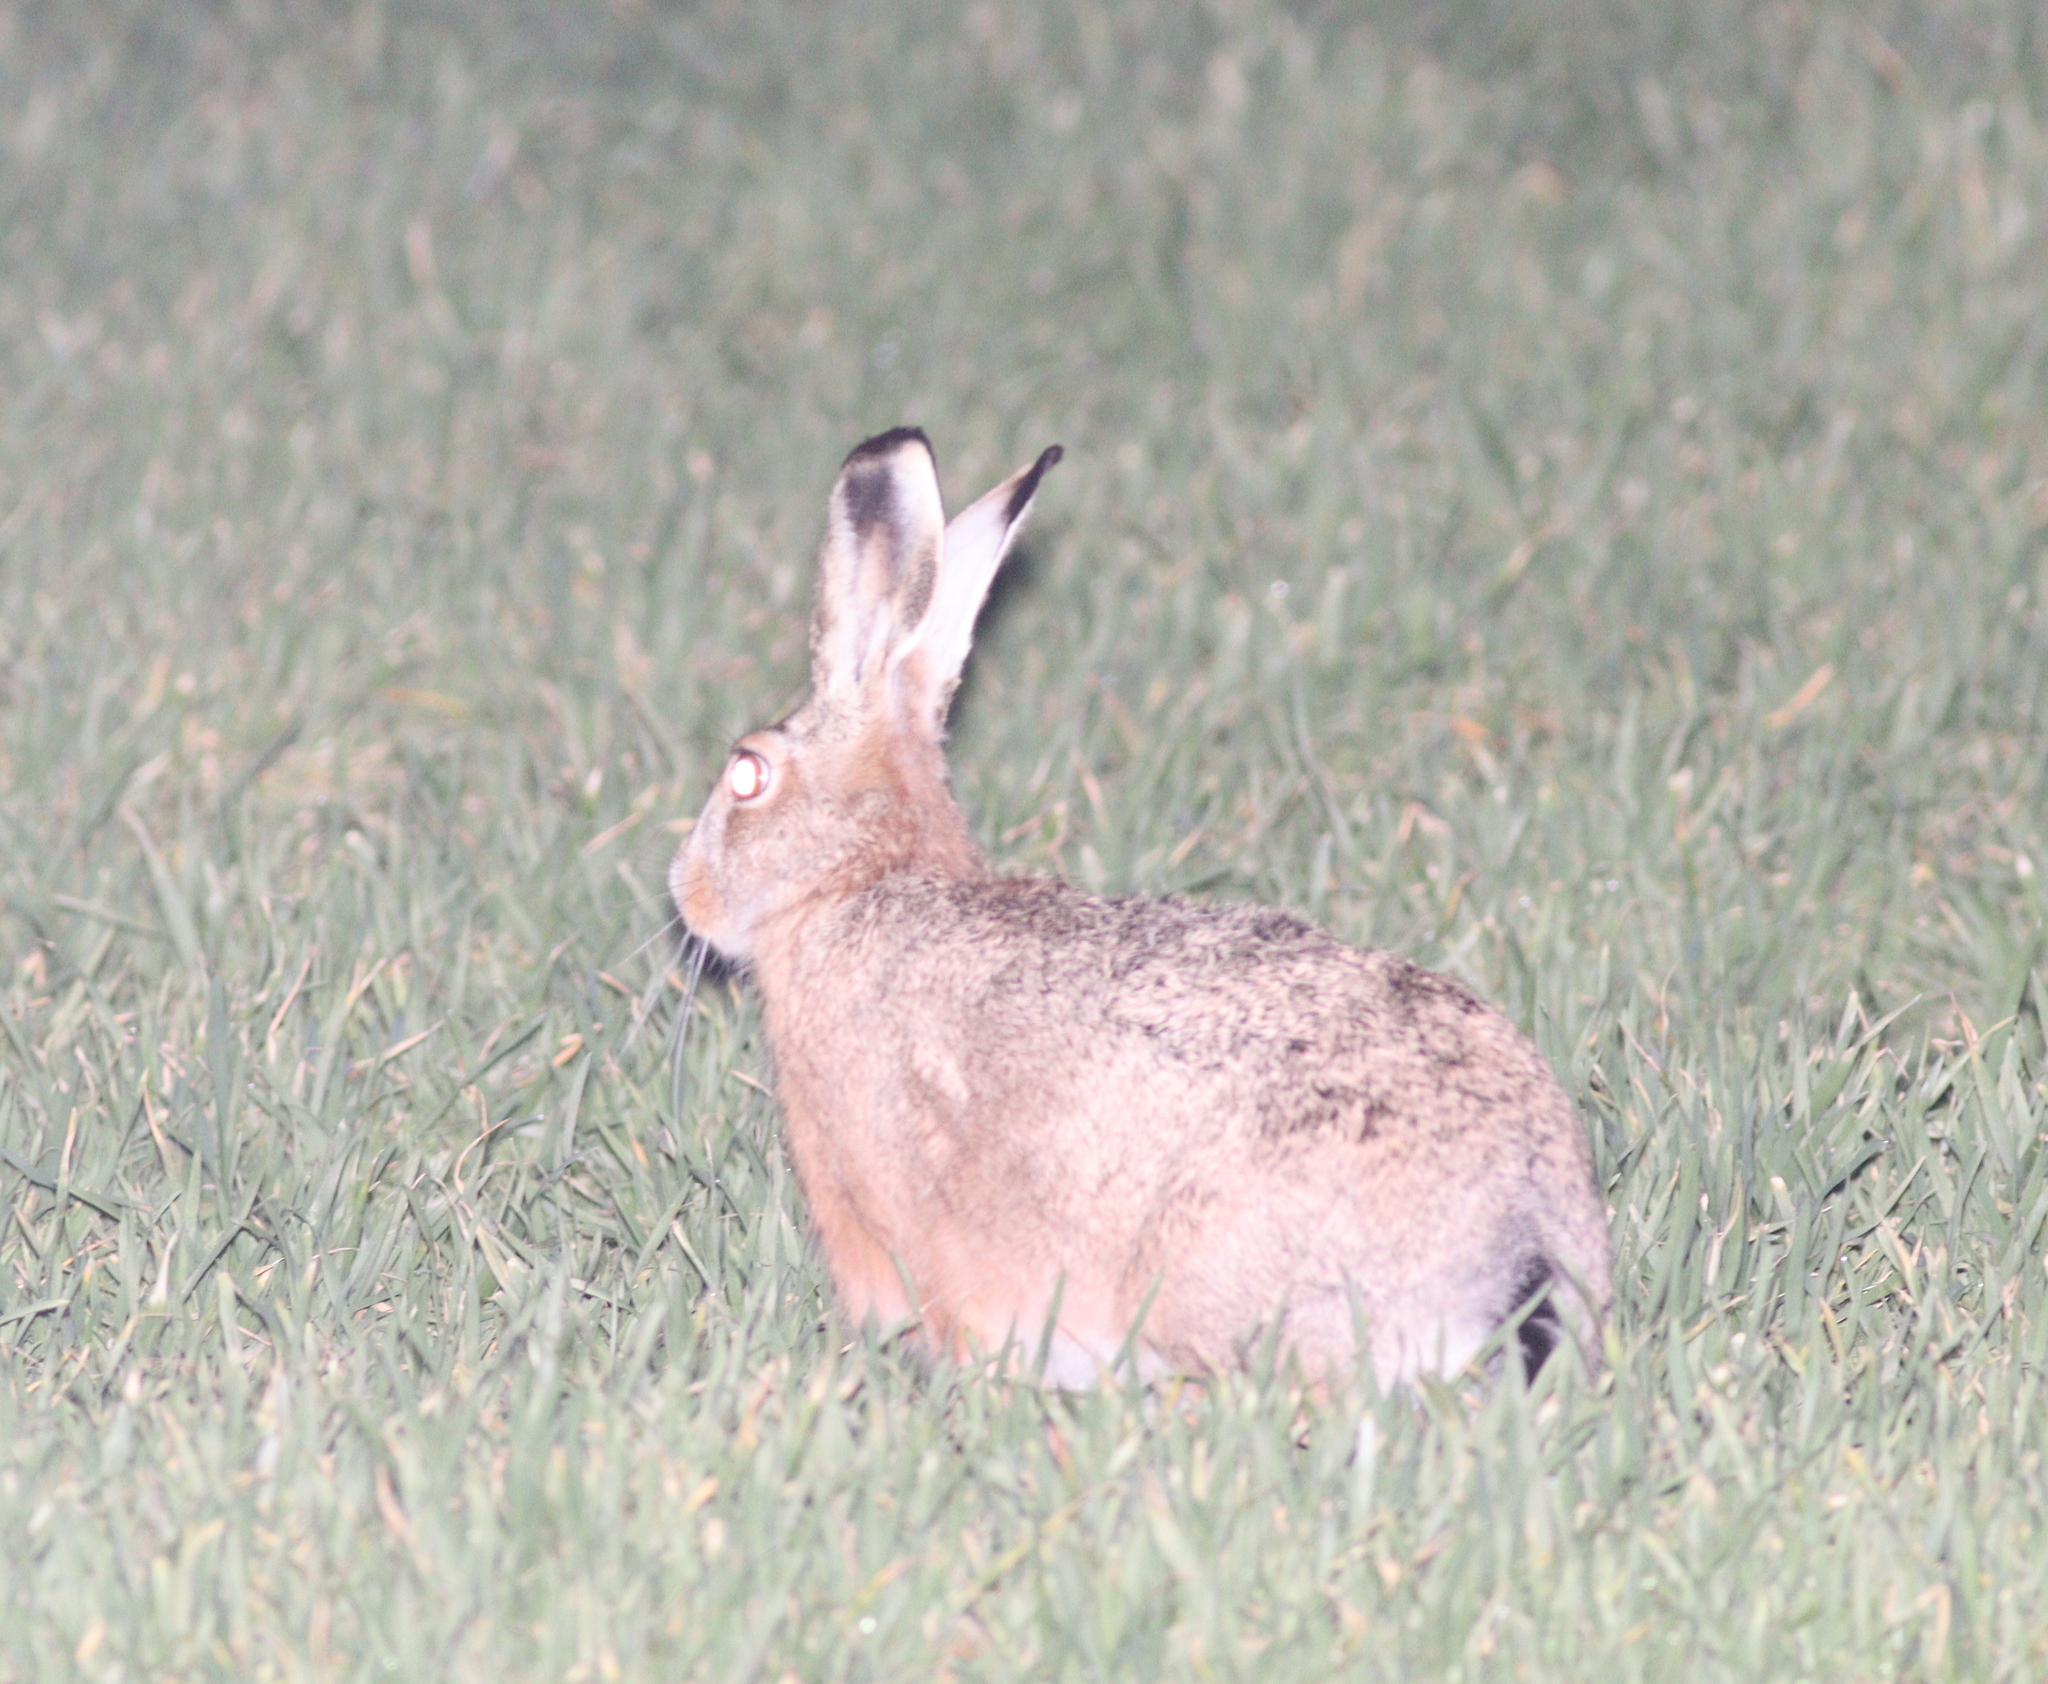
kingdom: Animalia
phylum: Chordata
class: Mammalia
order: Lagomorpha
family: Leporidae
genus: Lepus
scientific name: Lepus europaeus
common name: European hare
